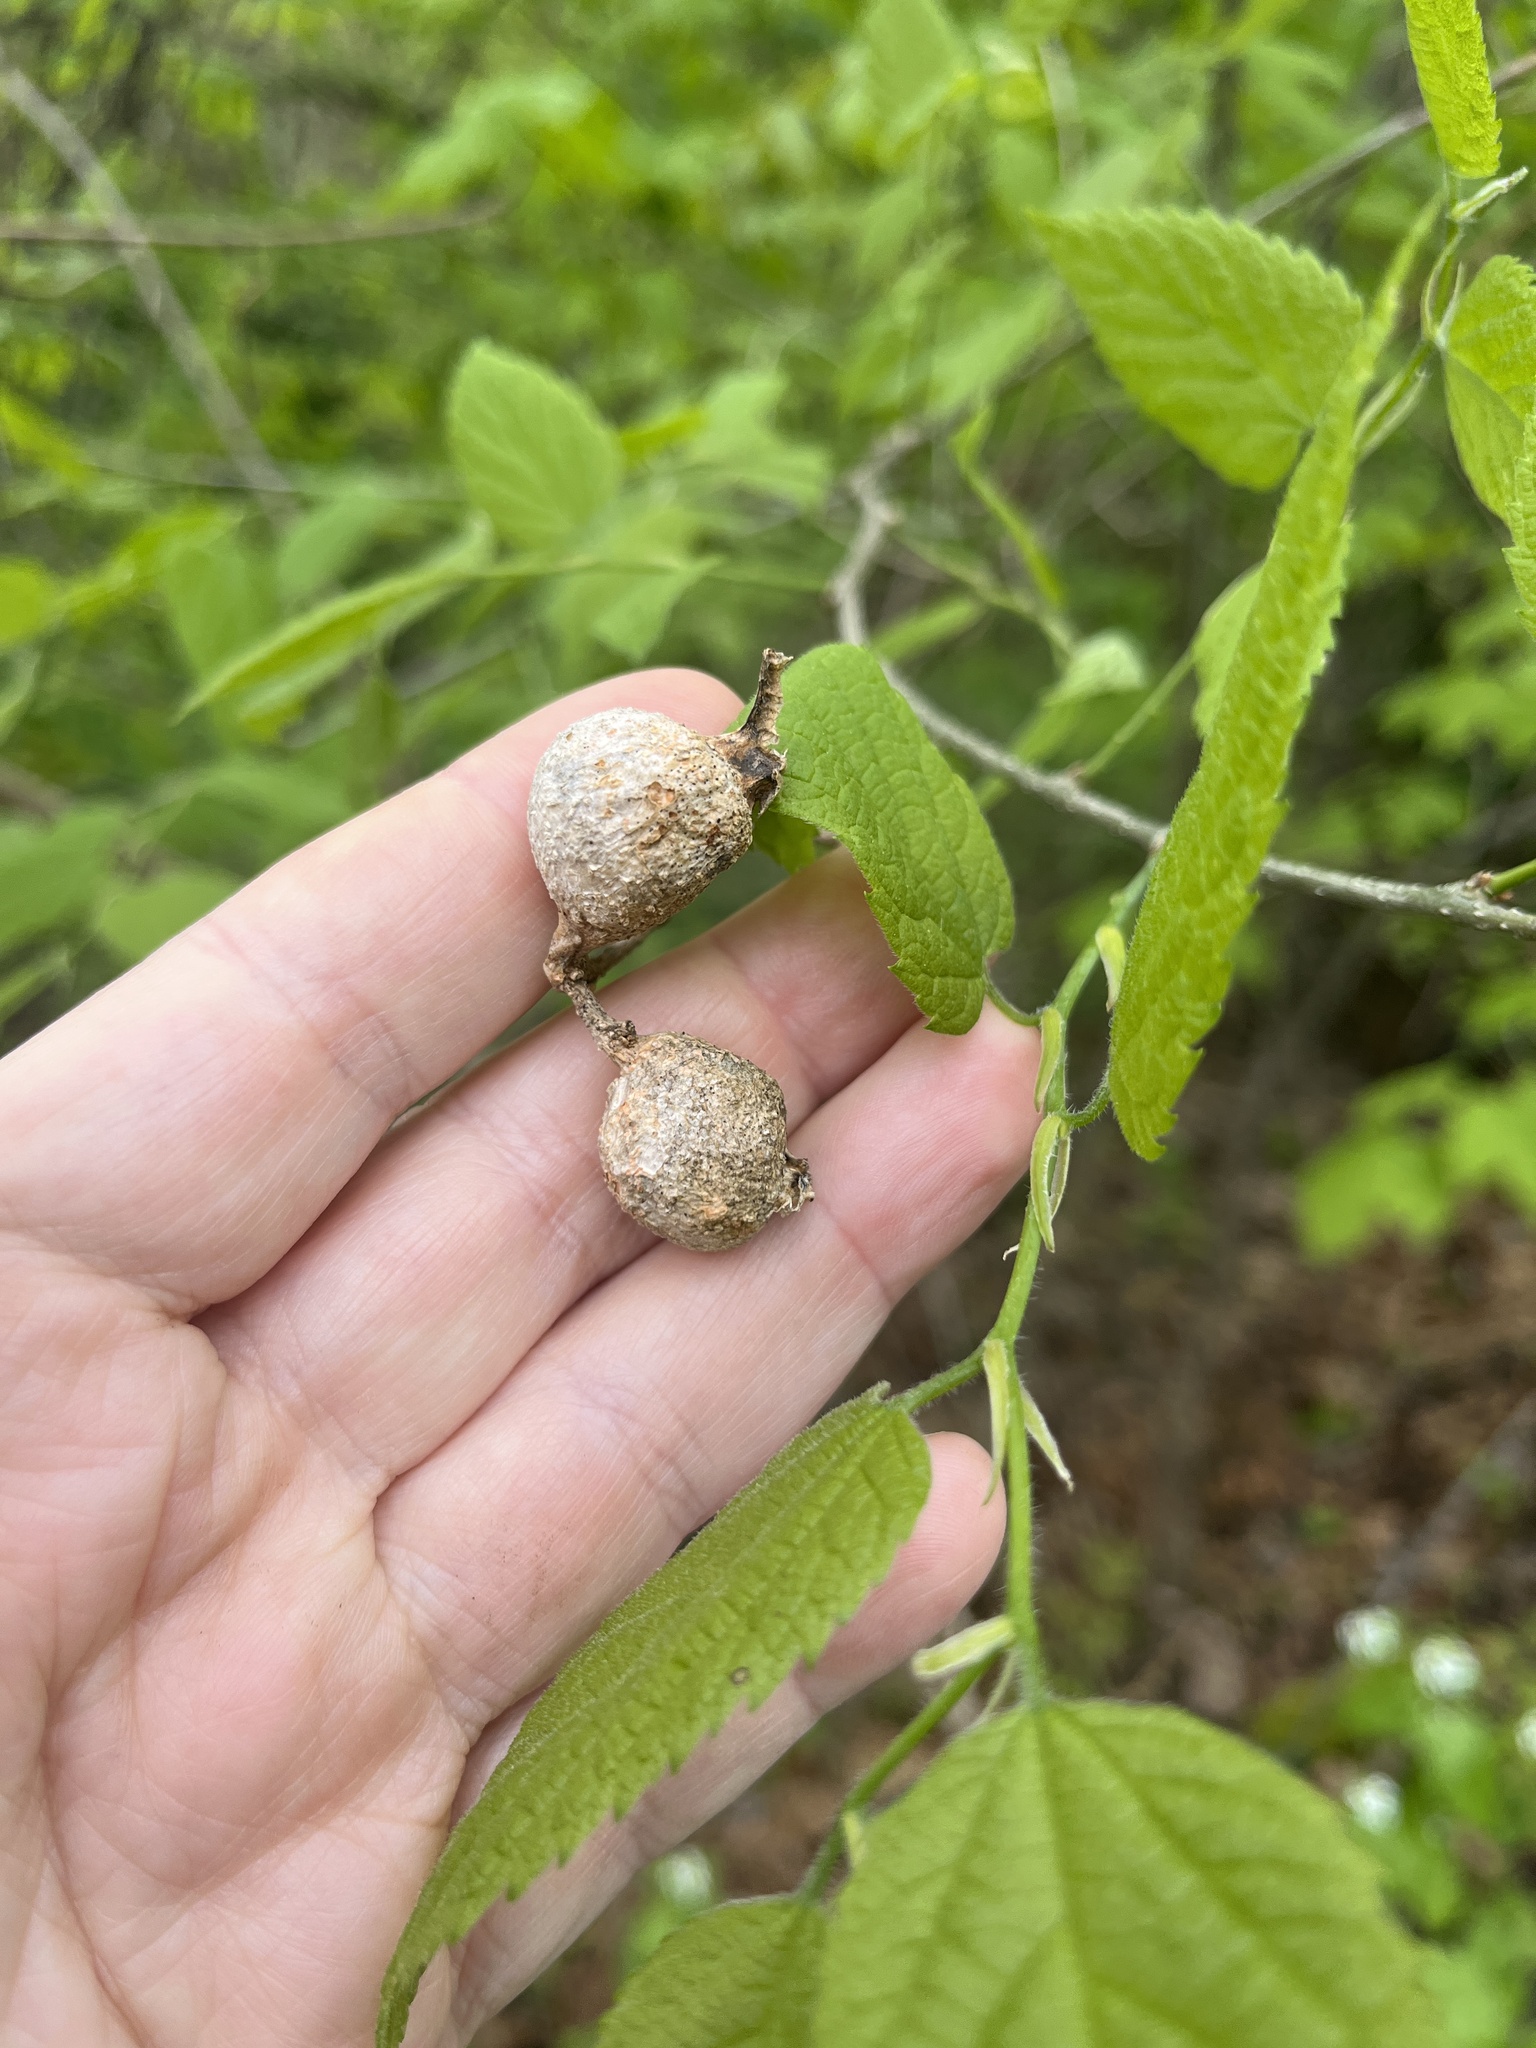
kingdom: Animalia
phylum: Arthropoda
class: Insecta
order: Hemiptera
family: Aphalaridae
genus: Pachypsylla
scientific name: Pachypsylla venusta
